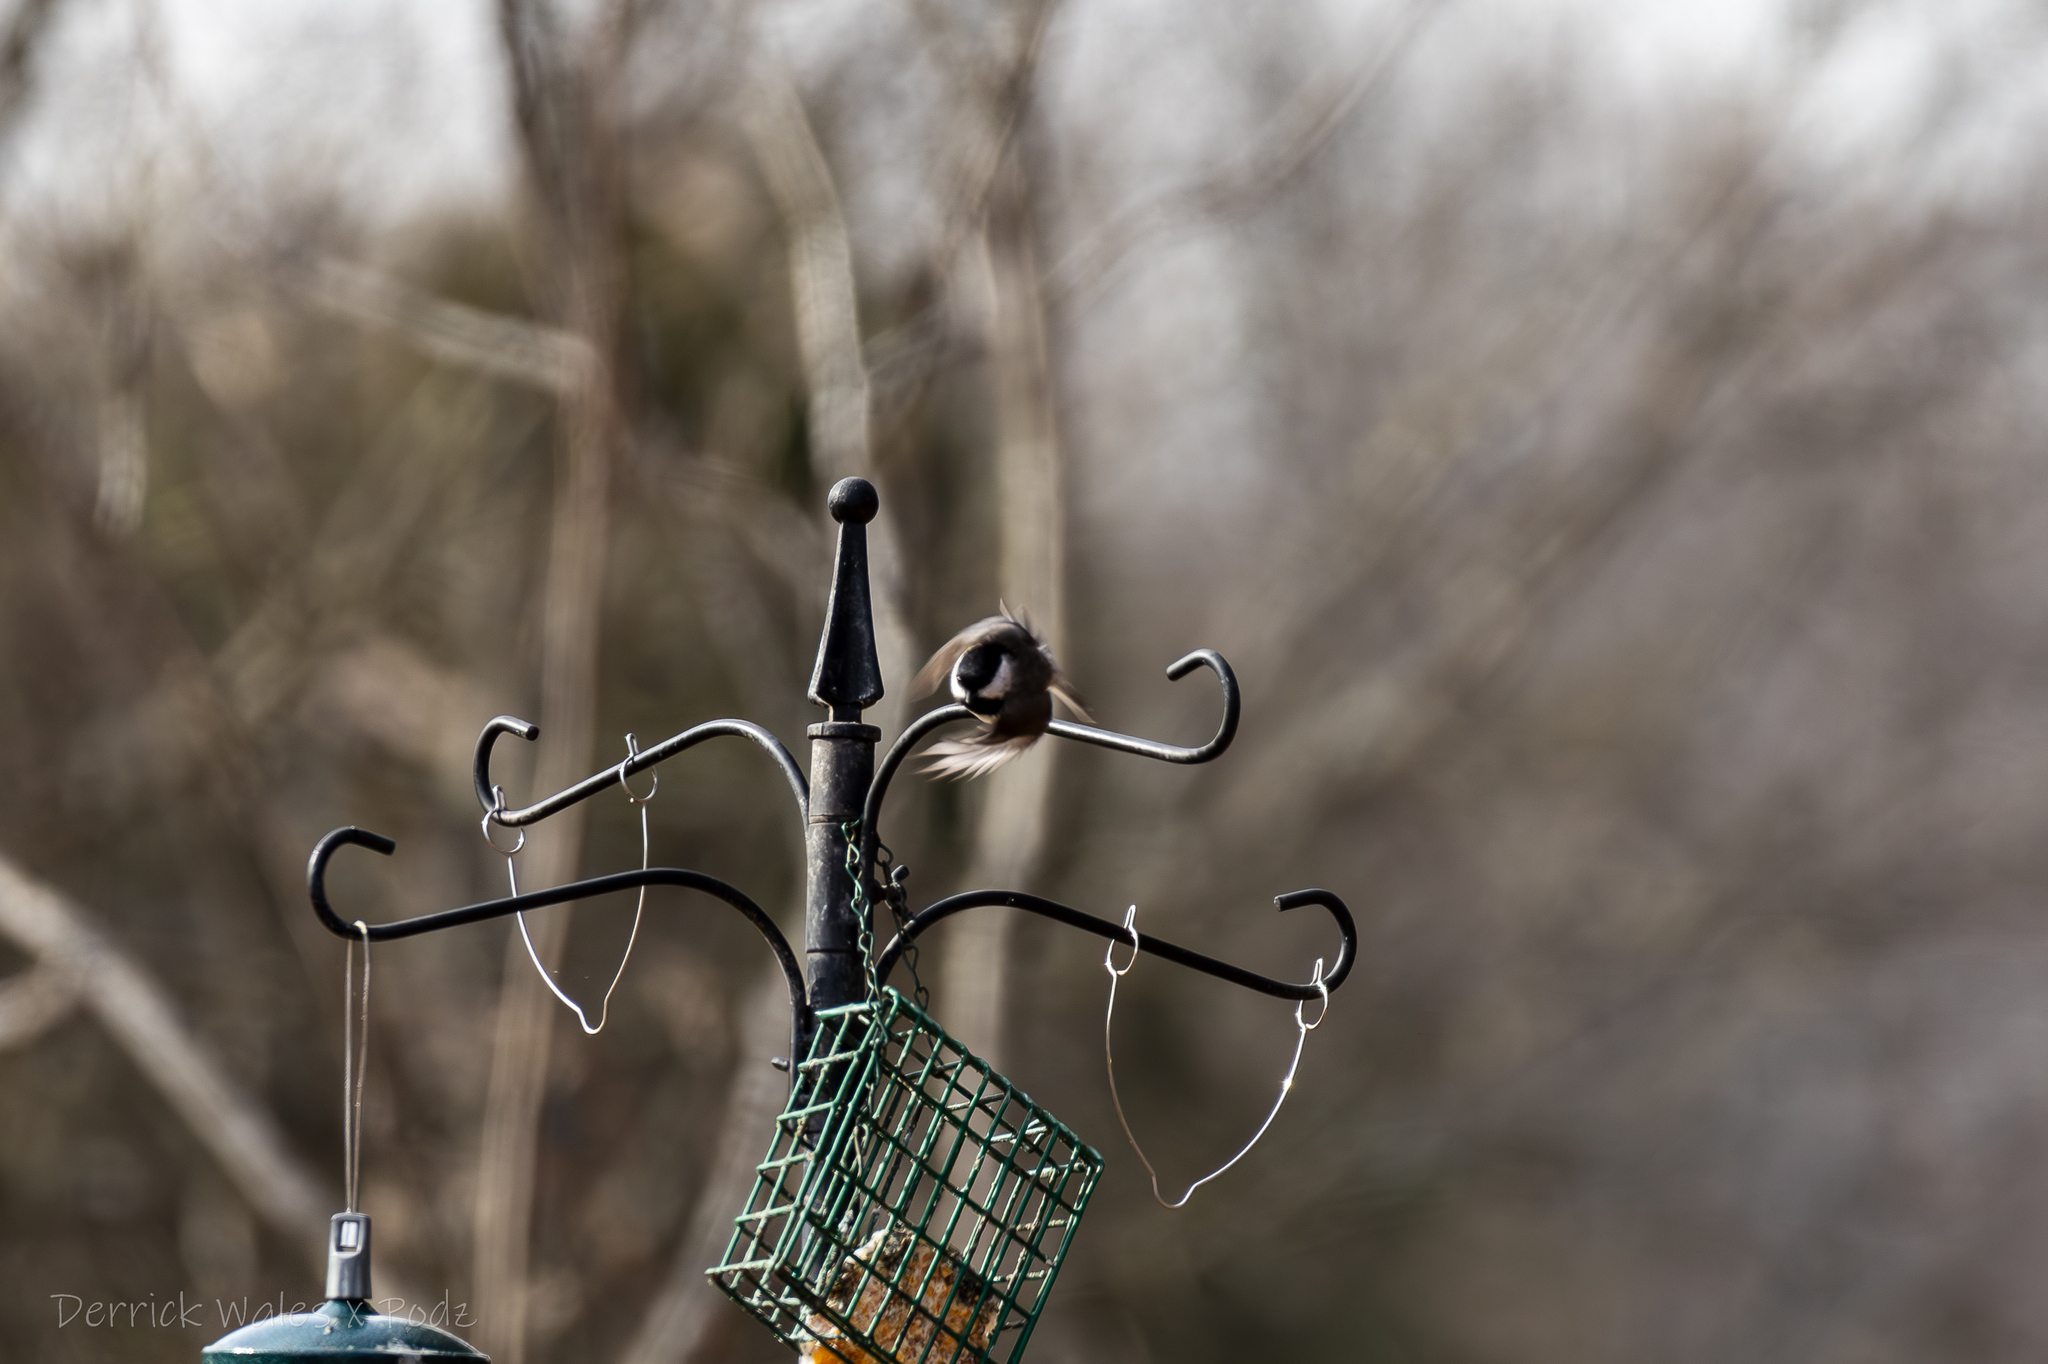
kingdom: Animalia
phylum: Chordata
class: Aves
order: Passeriformes
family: Paridae
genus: Poecile
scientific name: Poecile carolinensis
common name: Carolina chickadee
